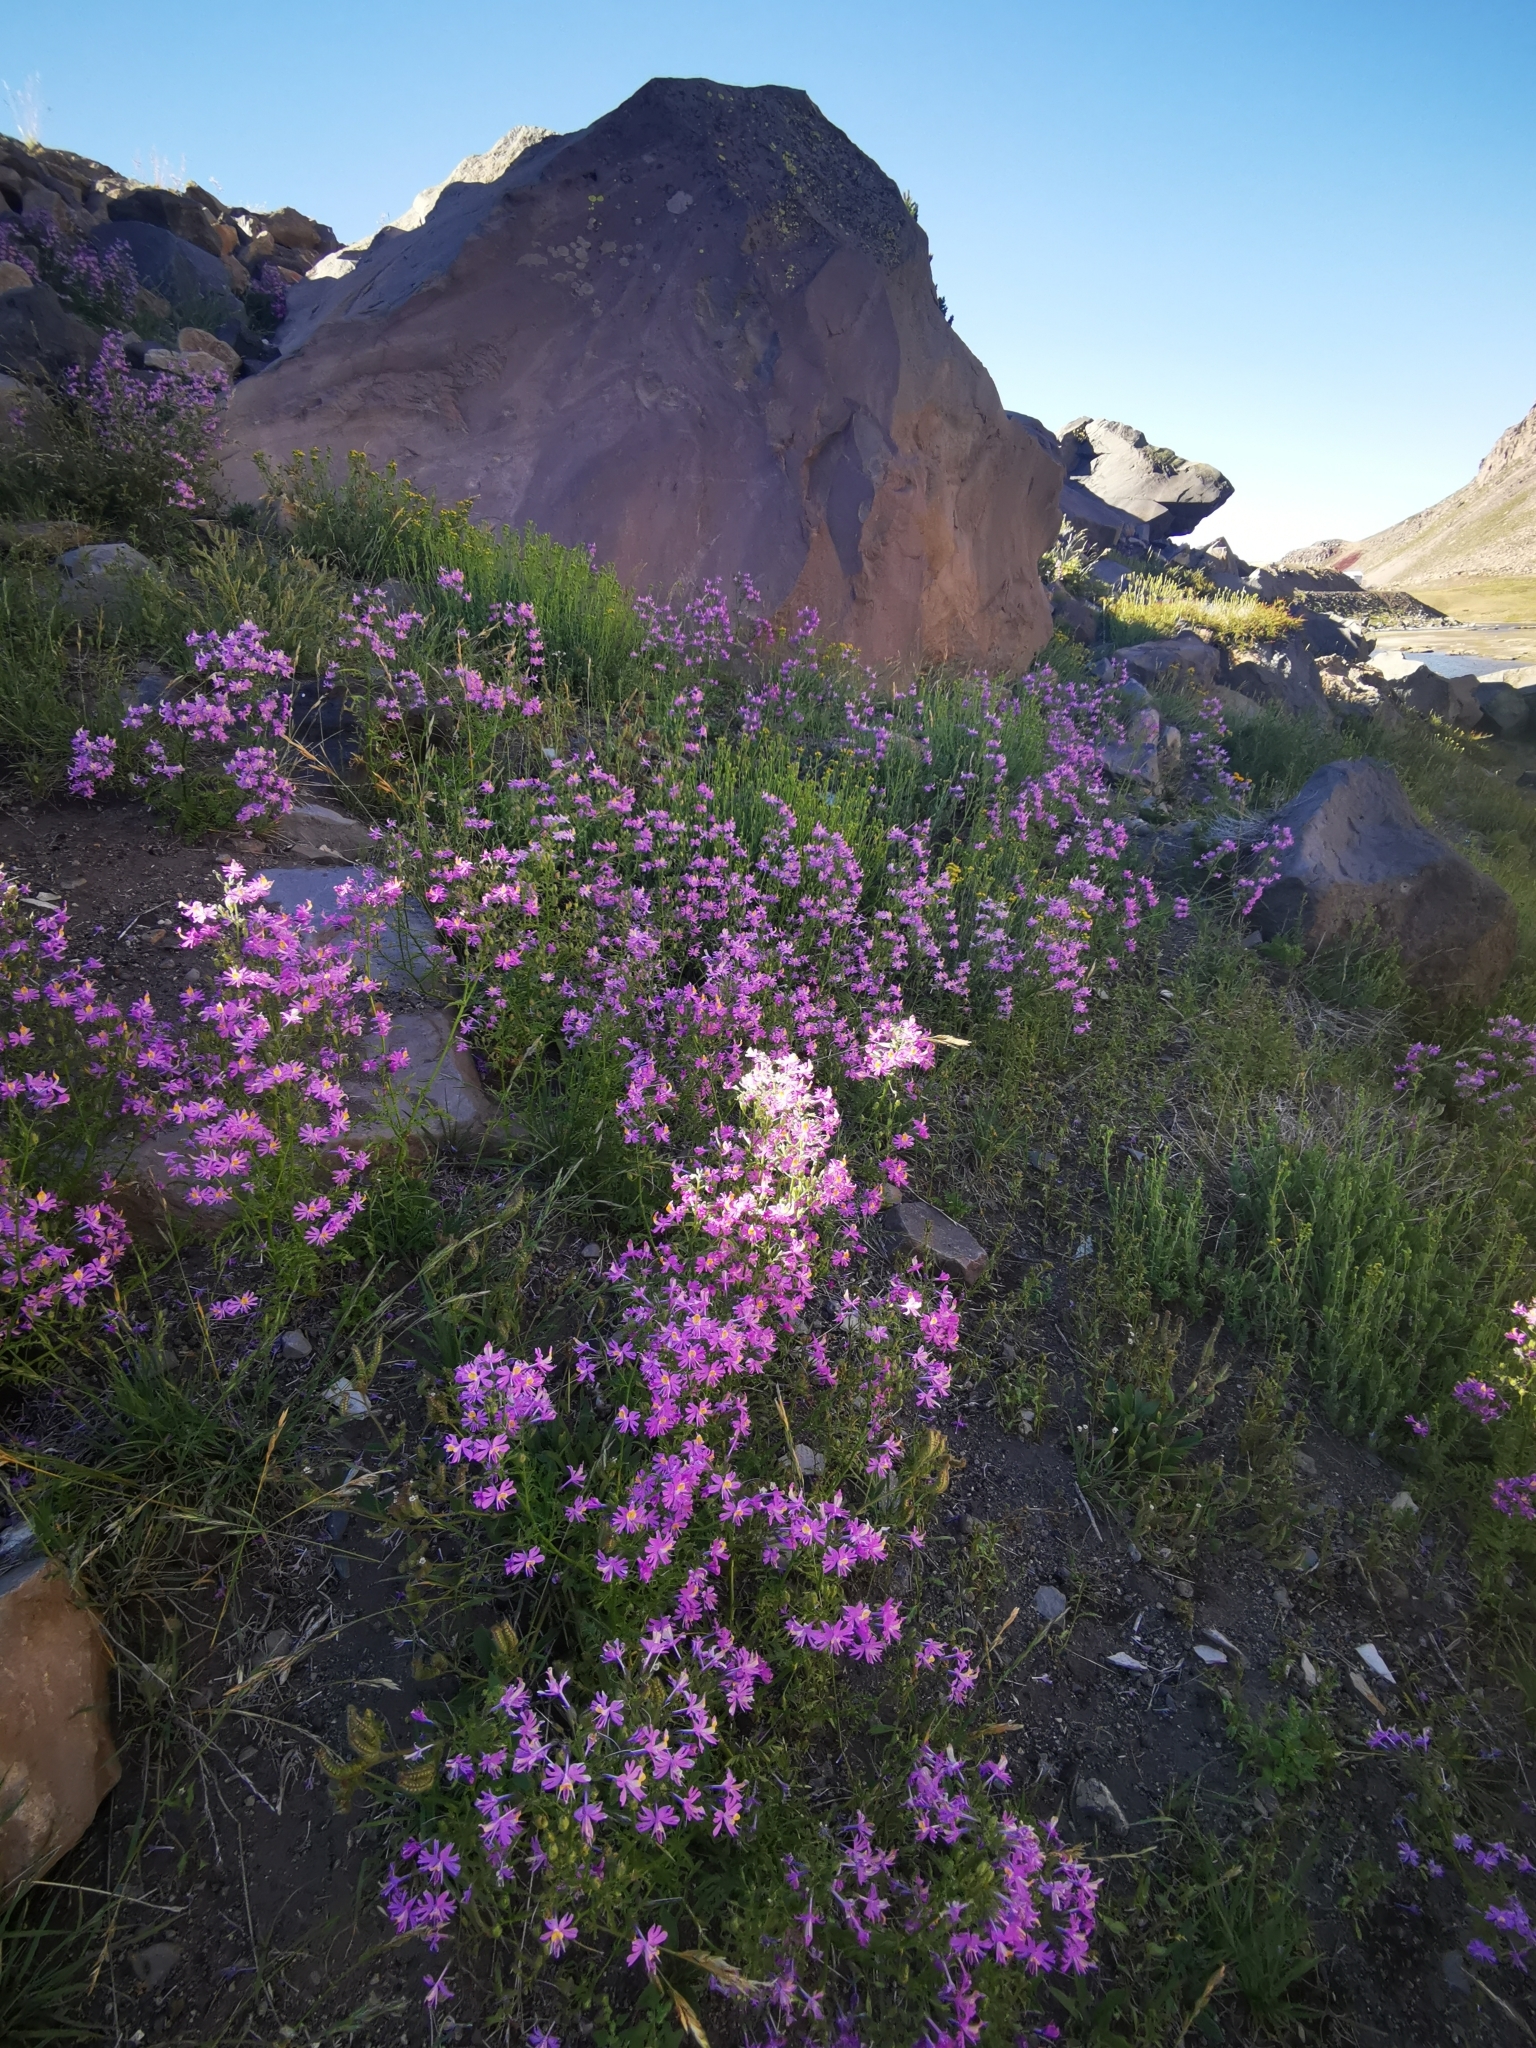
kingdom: Plantae
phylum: Tracheophyta
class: Magnoliopsida
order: Solanales
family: Solanaceae
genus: Schizanthus
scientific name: Schizanthus hookeri
